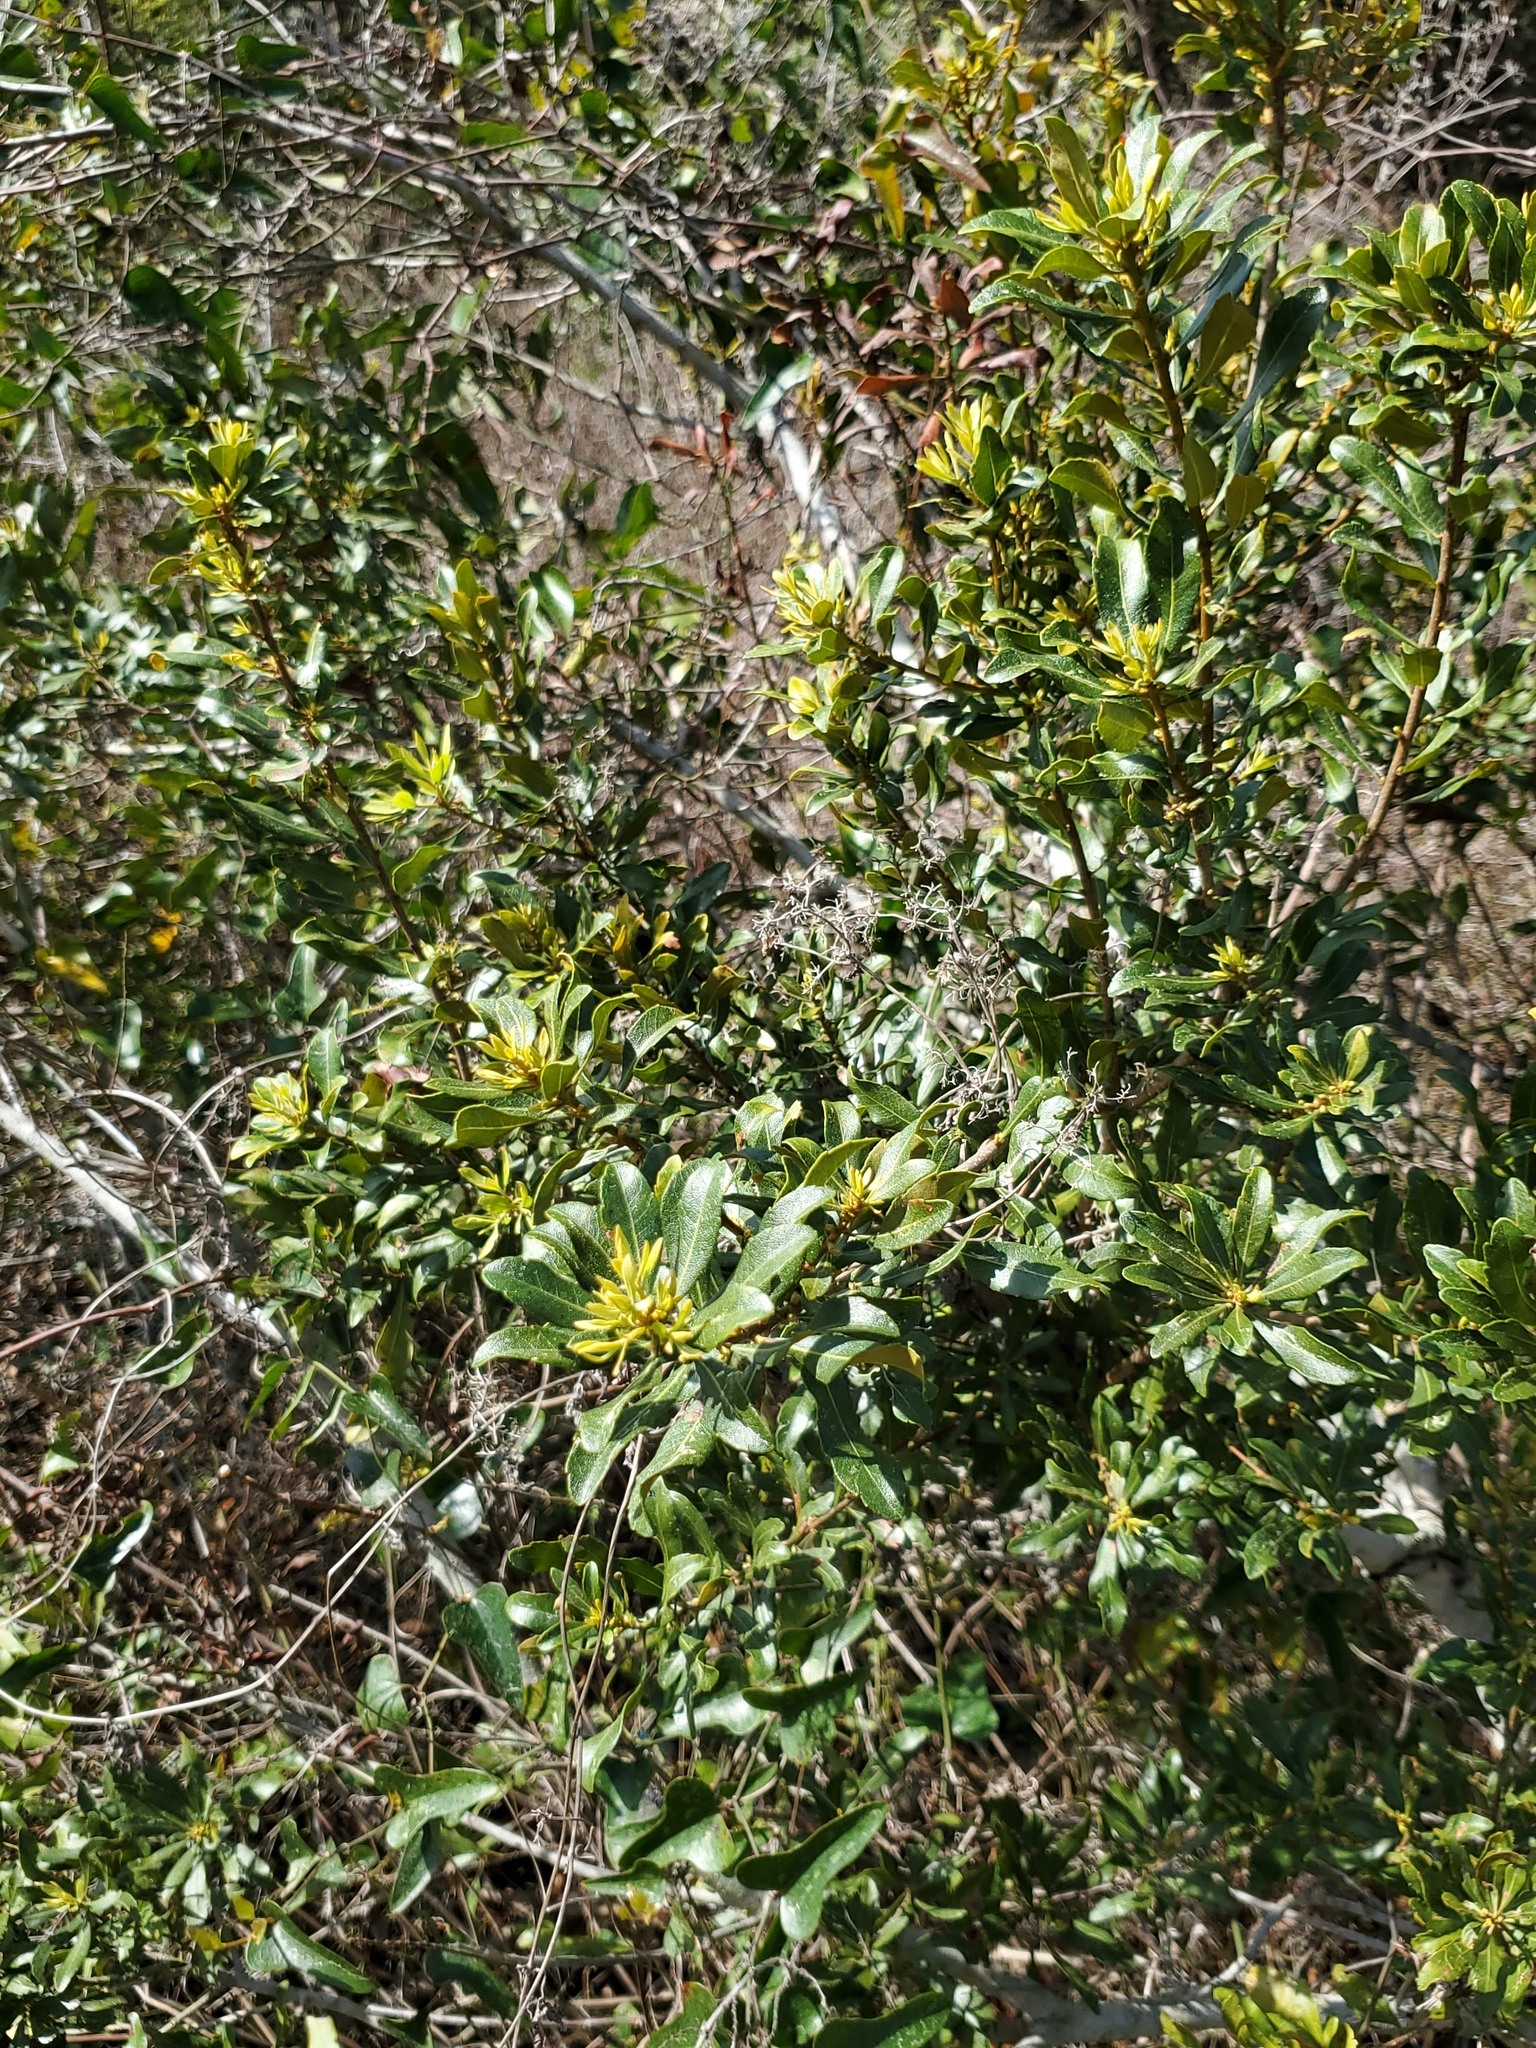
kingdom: Plantae
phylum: Tracheophyta
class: Magnoliopsida
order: Fagales
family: Myricaceae
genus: Morella
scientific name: Morella cerifera
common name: Wax myrtle
